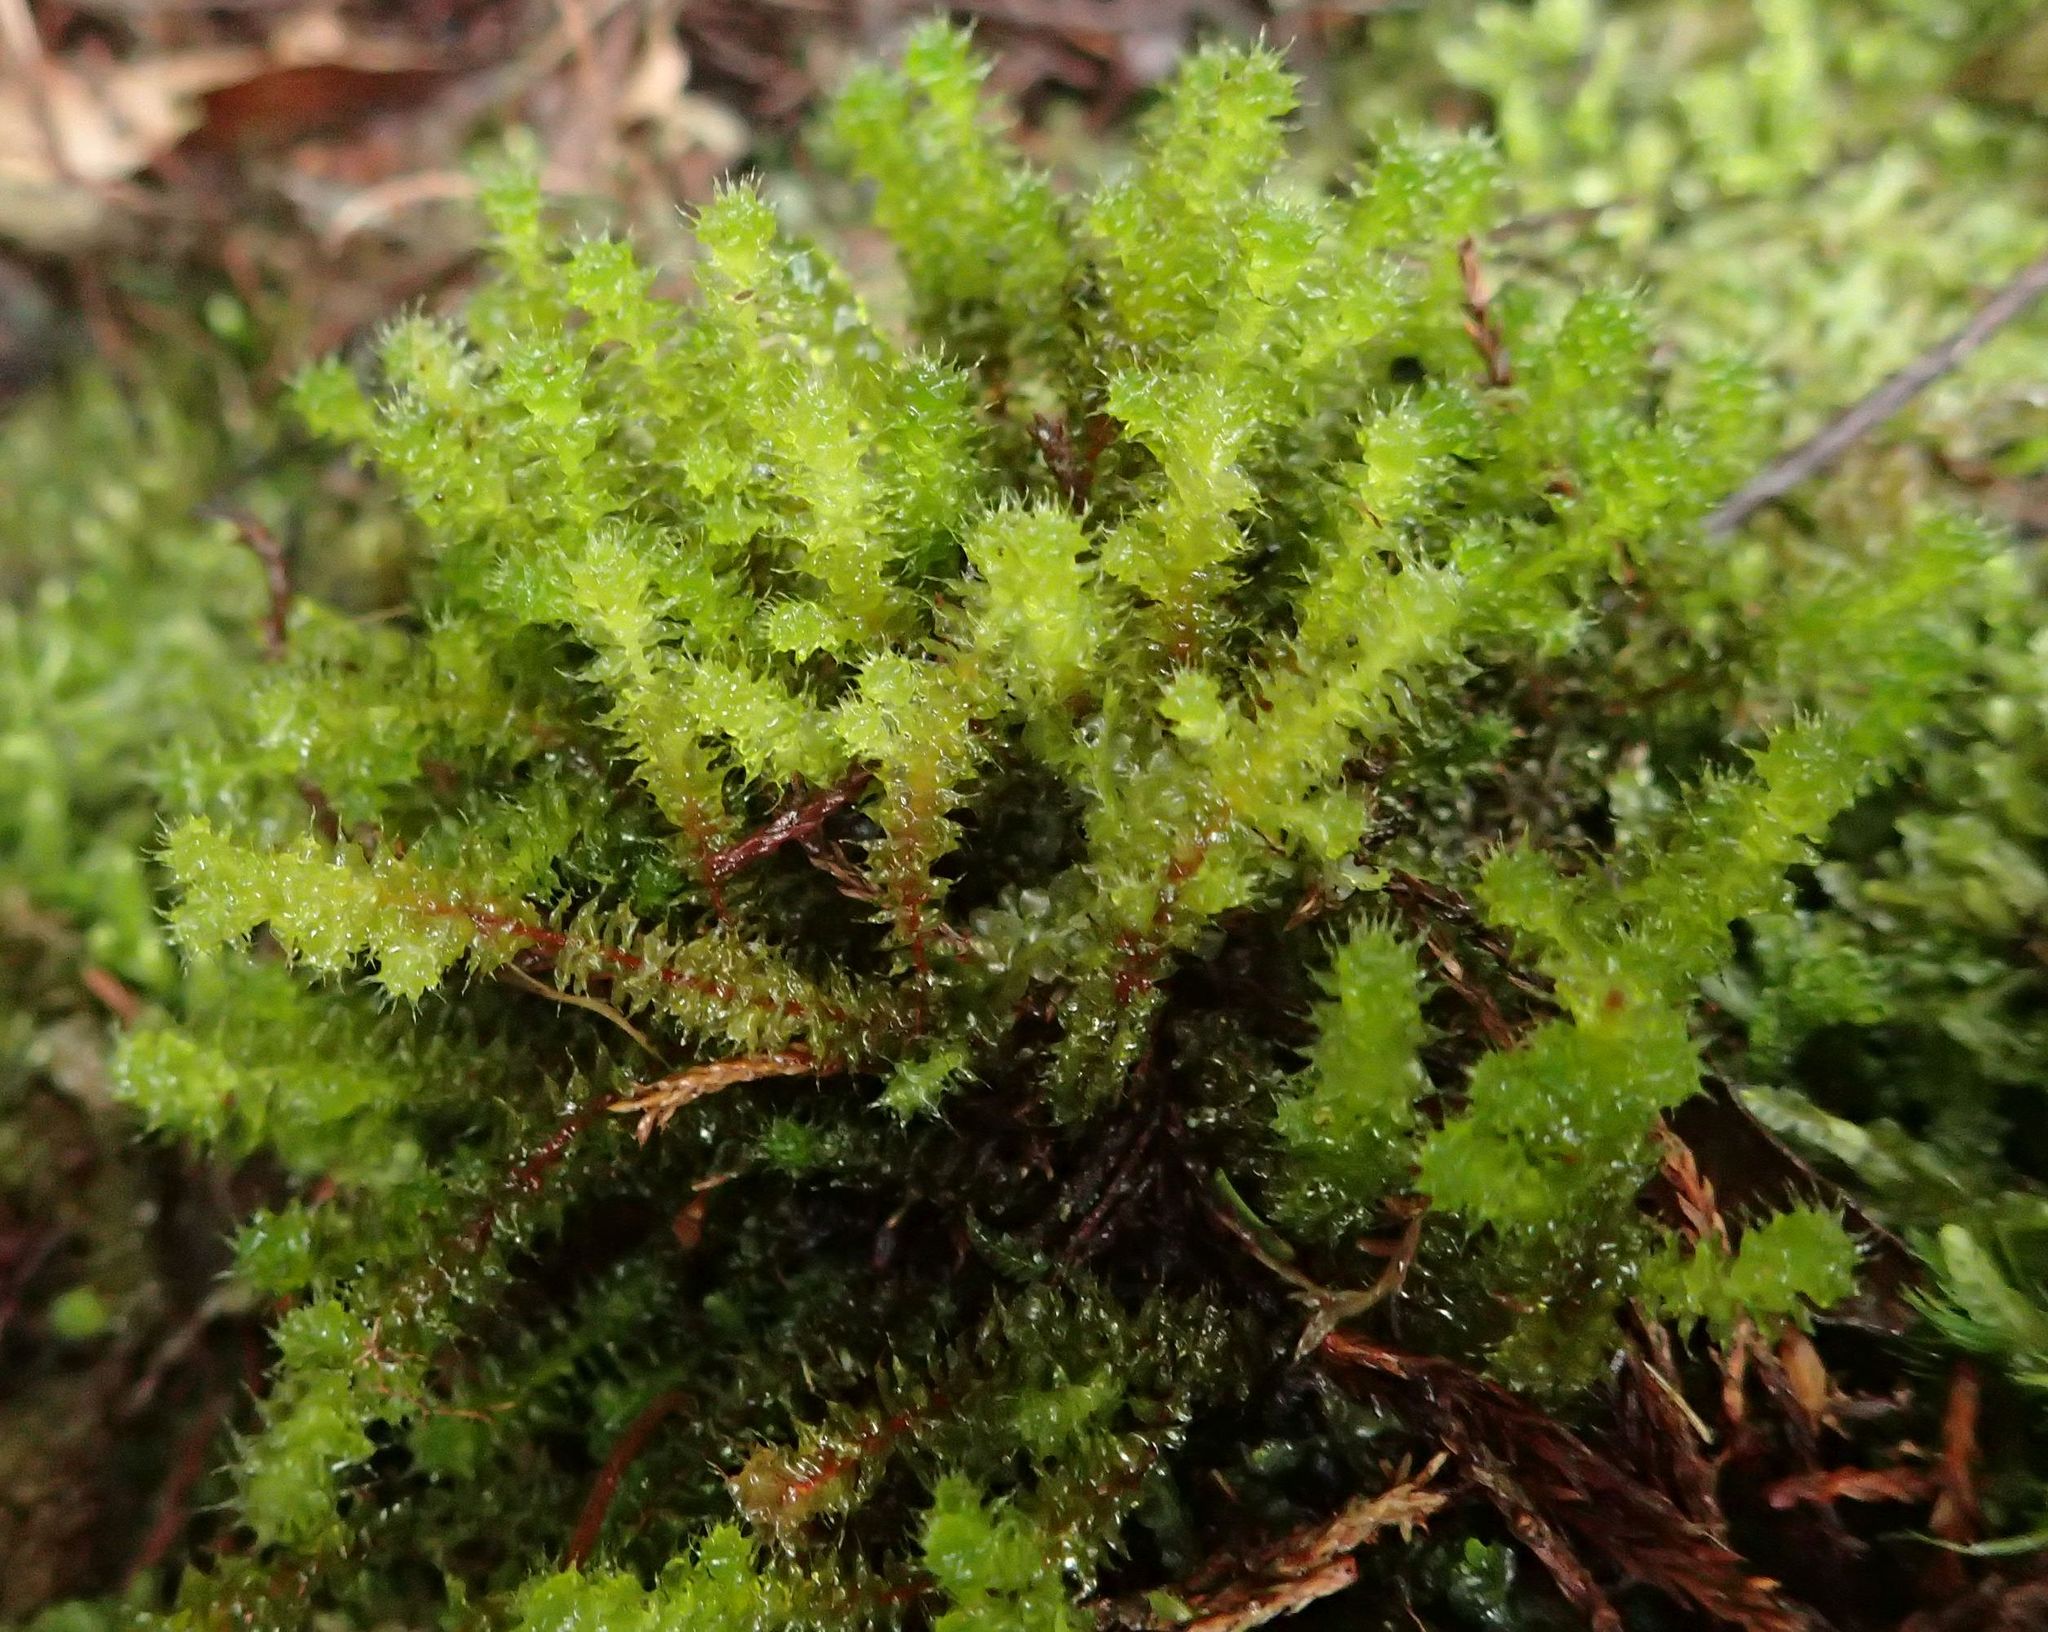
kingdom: Plantae
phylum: Bryophyta
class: Bryopsida
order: Ptychomniales
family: Ptychomniaceae
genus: Ptychomnion
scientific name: Ptychomnion aciculare
